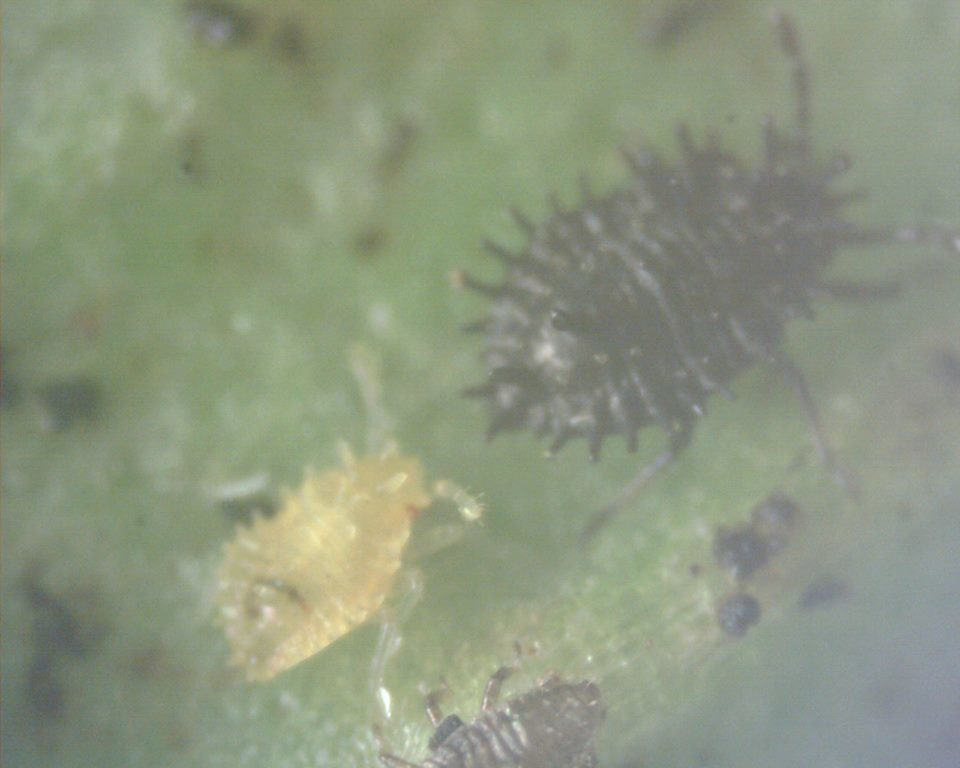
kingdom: Animalia
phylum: Arthropoda
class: Insecta
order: Hemiptera
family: Tingidae
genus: Cochlochila
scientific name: Cochlochila bullita
